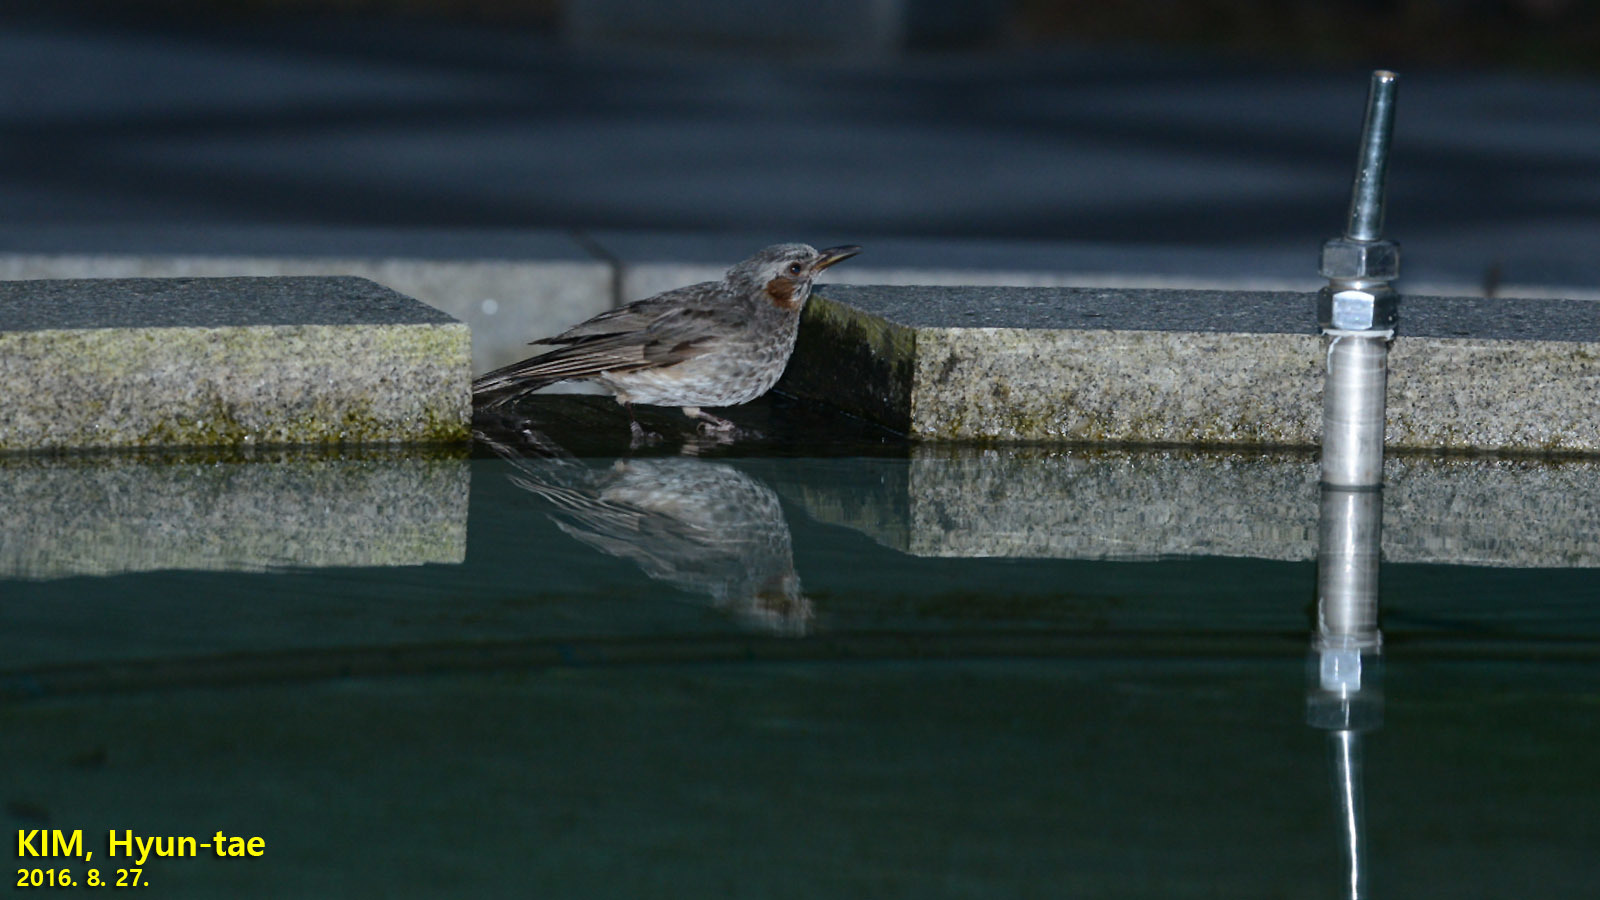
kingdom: Animalia
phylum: Chordata
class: Aves
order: Passeriformes
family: Pycnonotidae
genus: Hypsipetes
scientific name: Hypsipetes amaurotis
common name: Brown-eared bulbul
